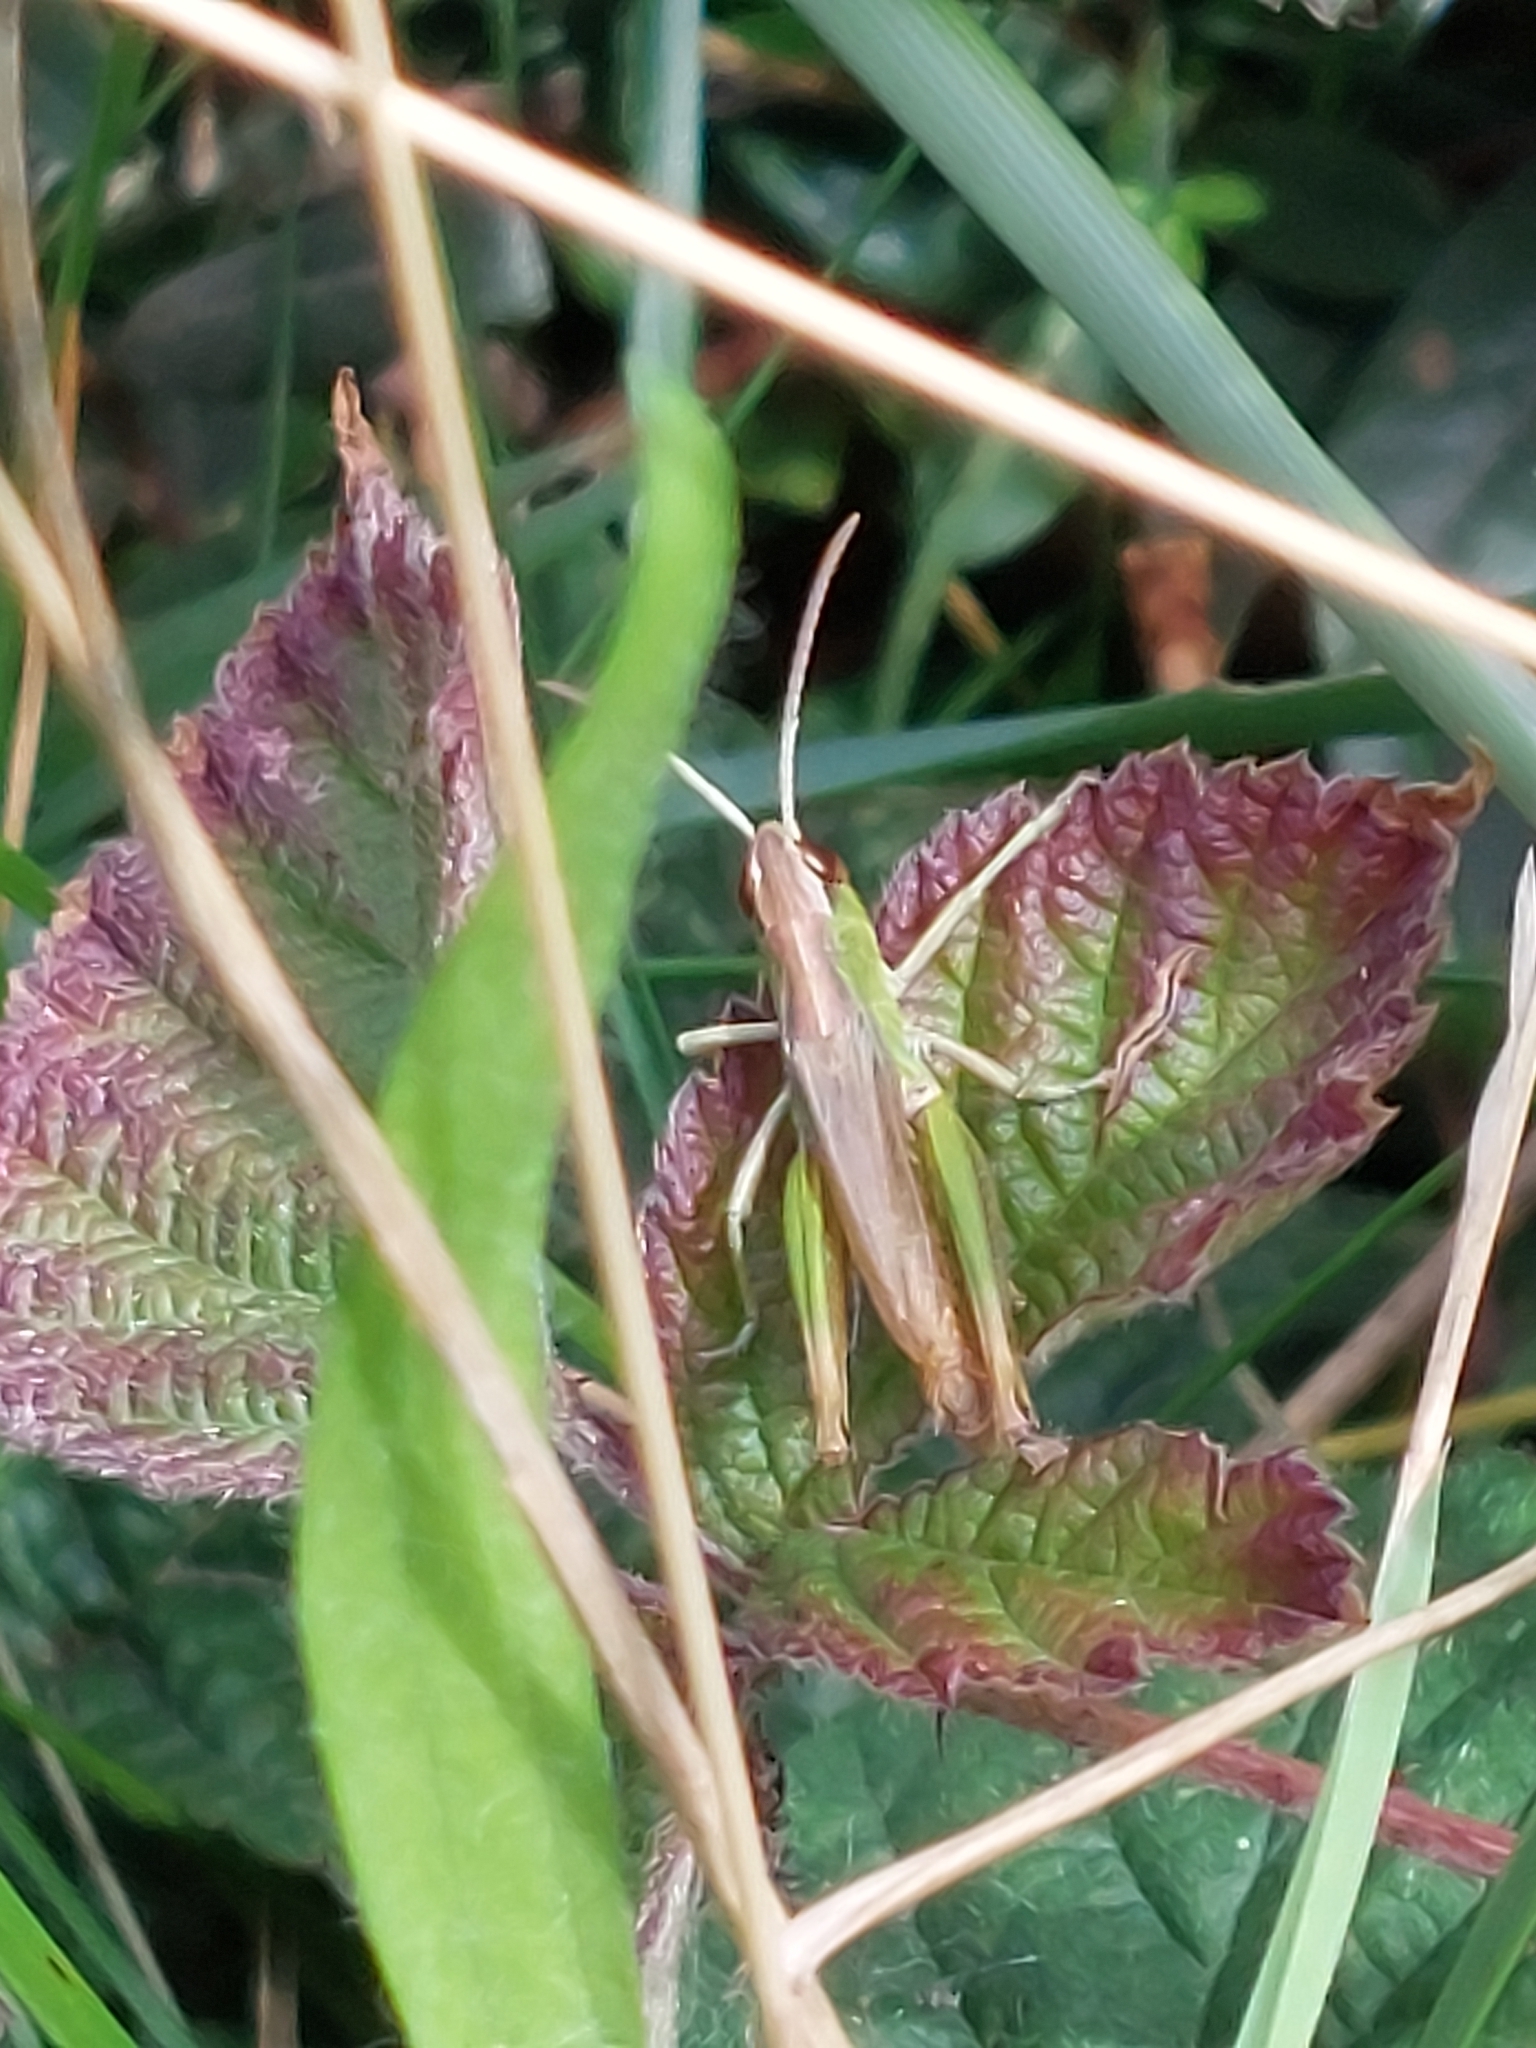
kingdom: Animalia
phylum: Arthropoda
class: Insecta
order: Orthoptera
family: Acrididae
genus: Omocestus
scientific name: Omocestus viridulus
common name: Common green grasshopper
